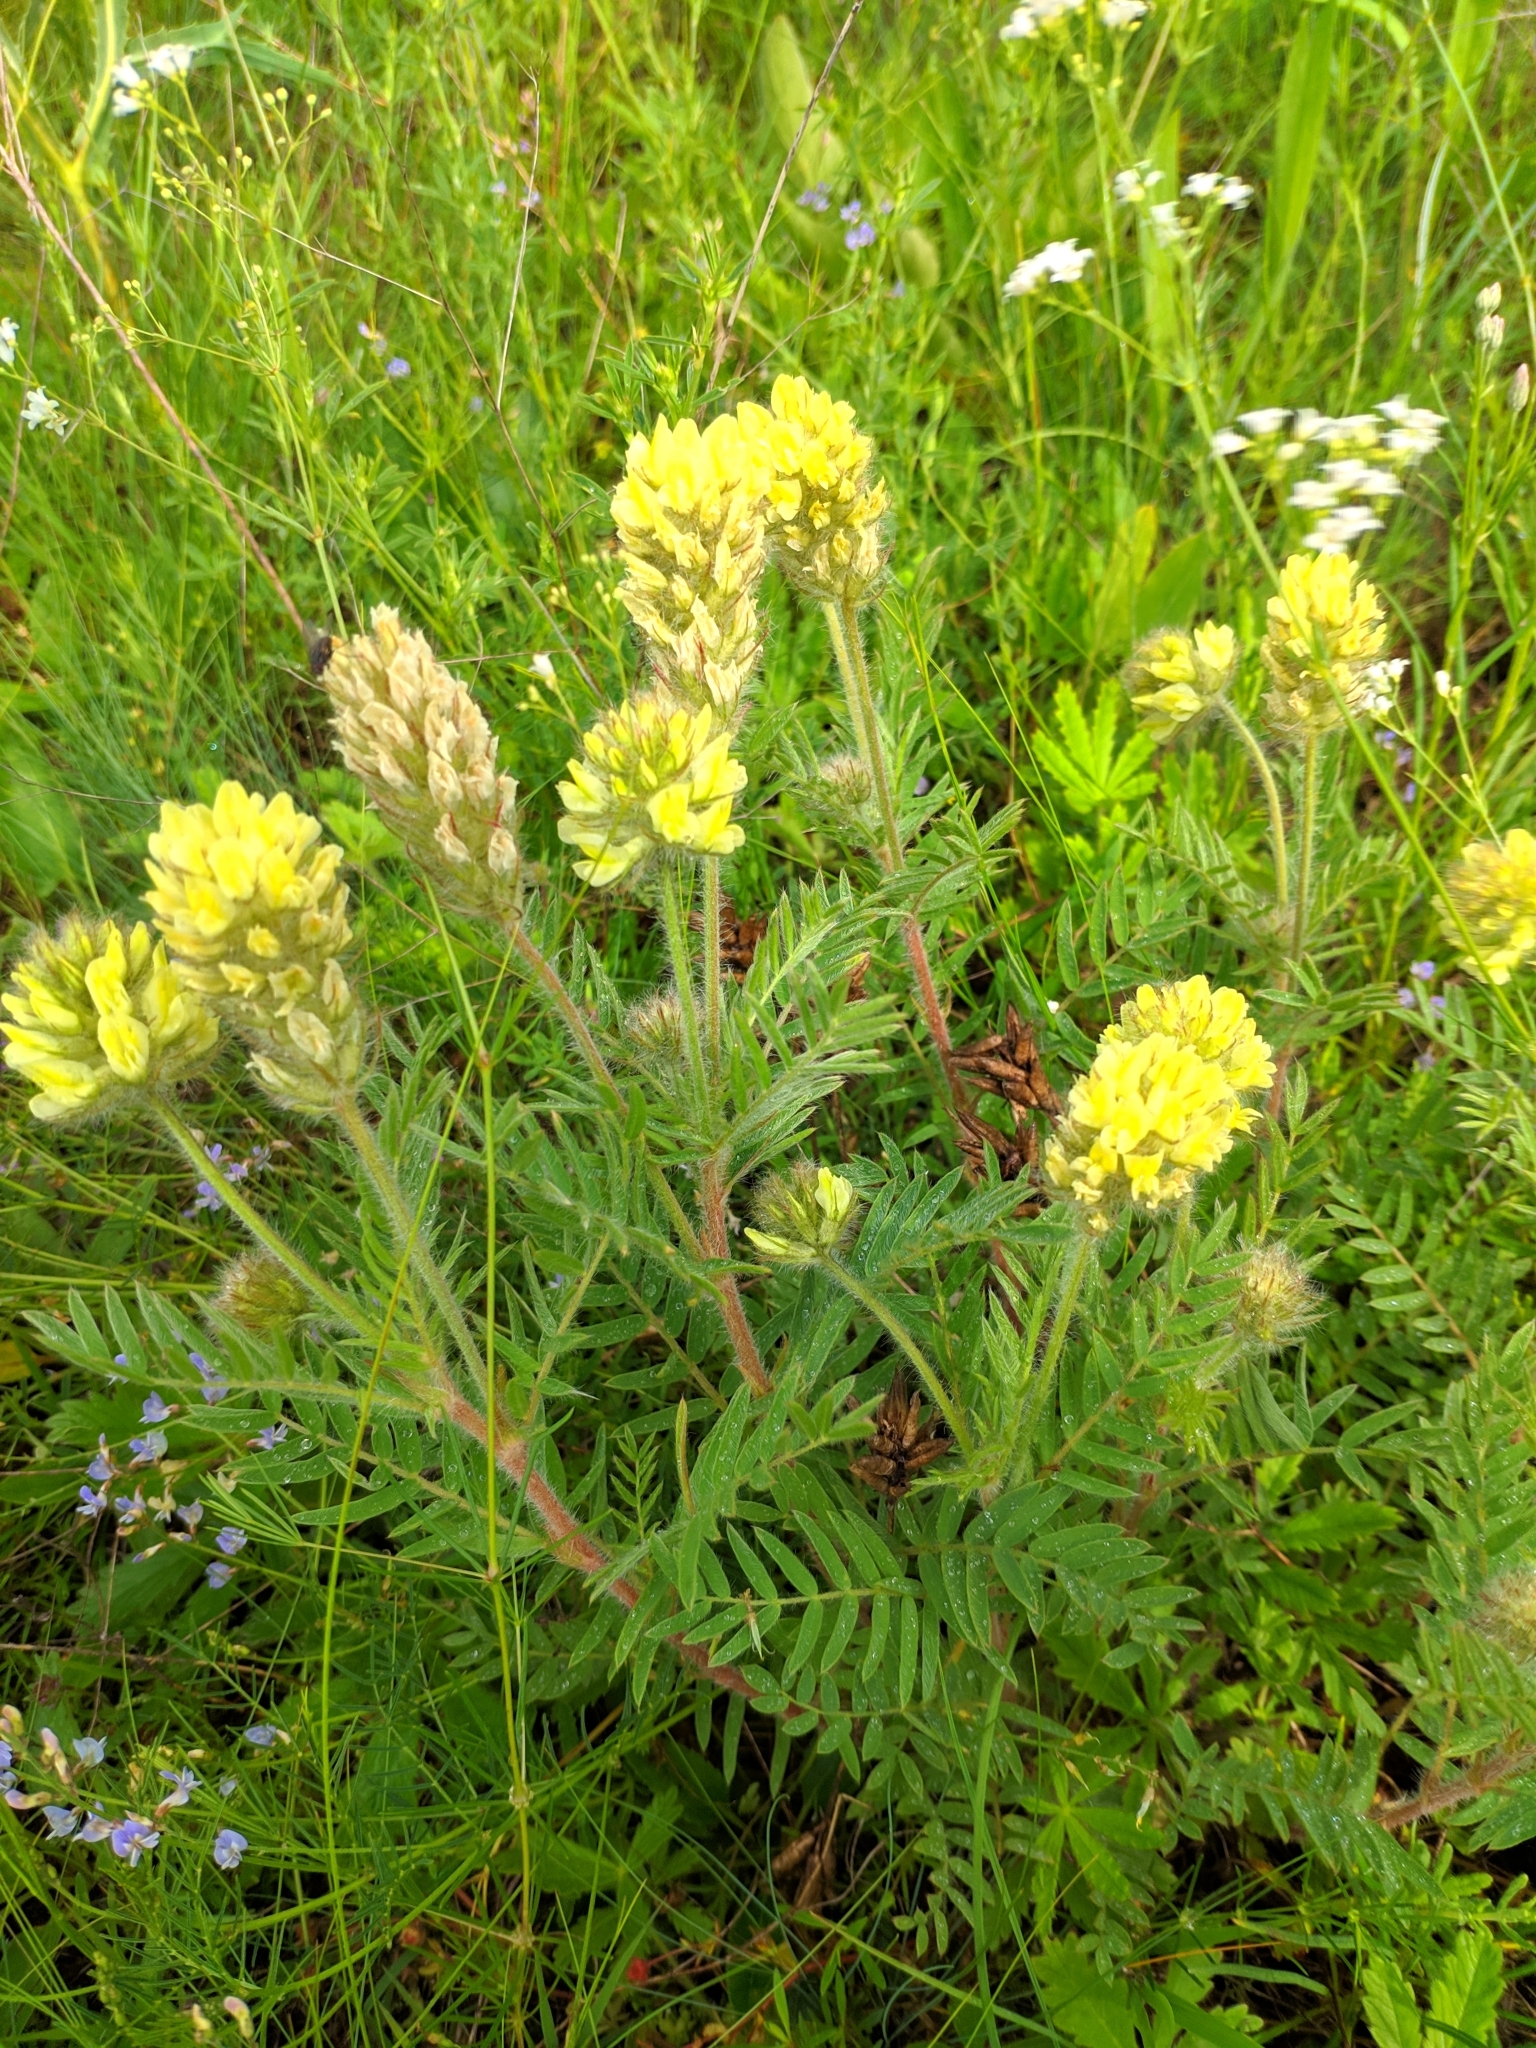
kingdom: Plantae
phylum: Tracheophyta
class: Magnoliopsida
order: Fabales
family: Fabaceae
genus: Oxytropis
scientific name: Oxytropis pilosa
